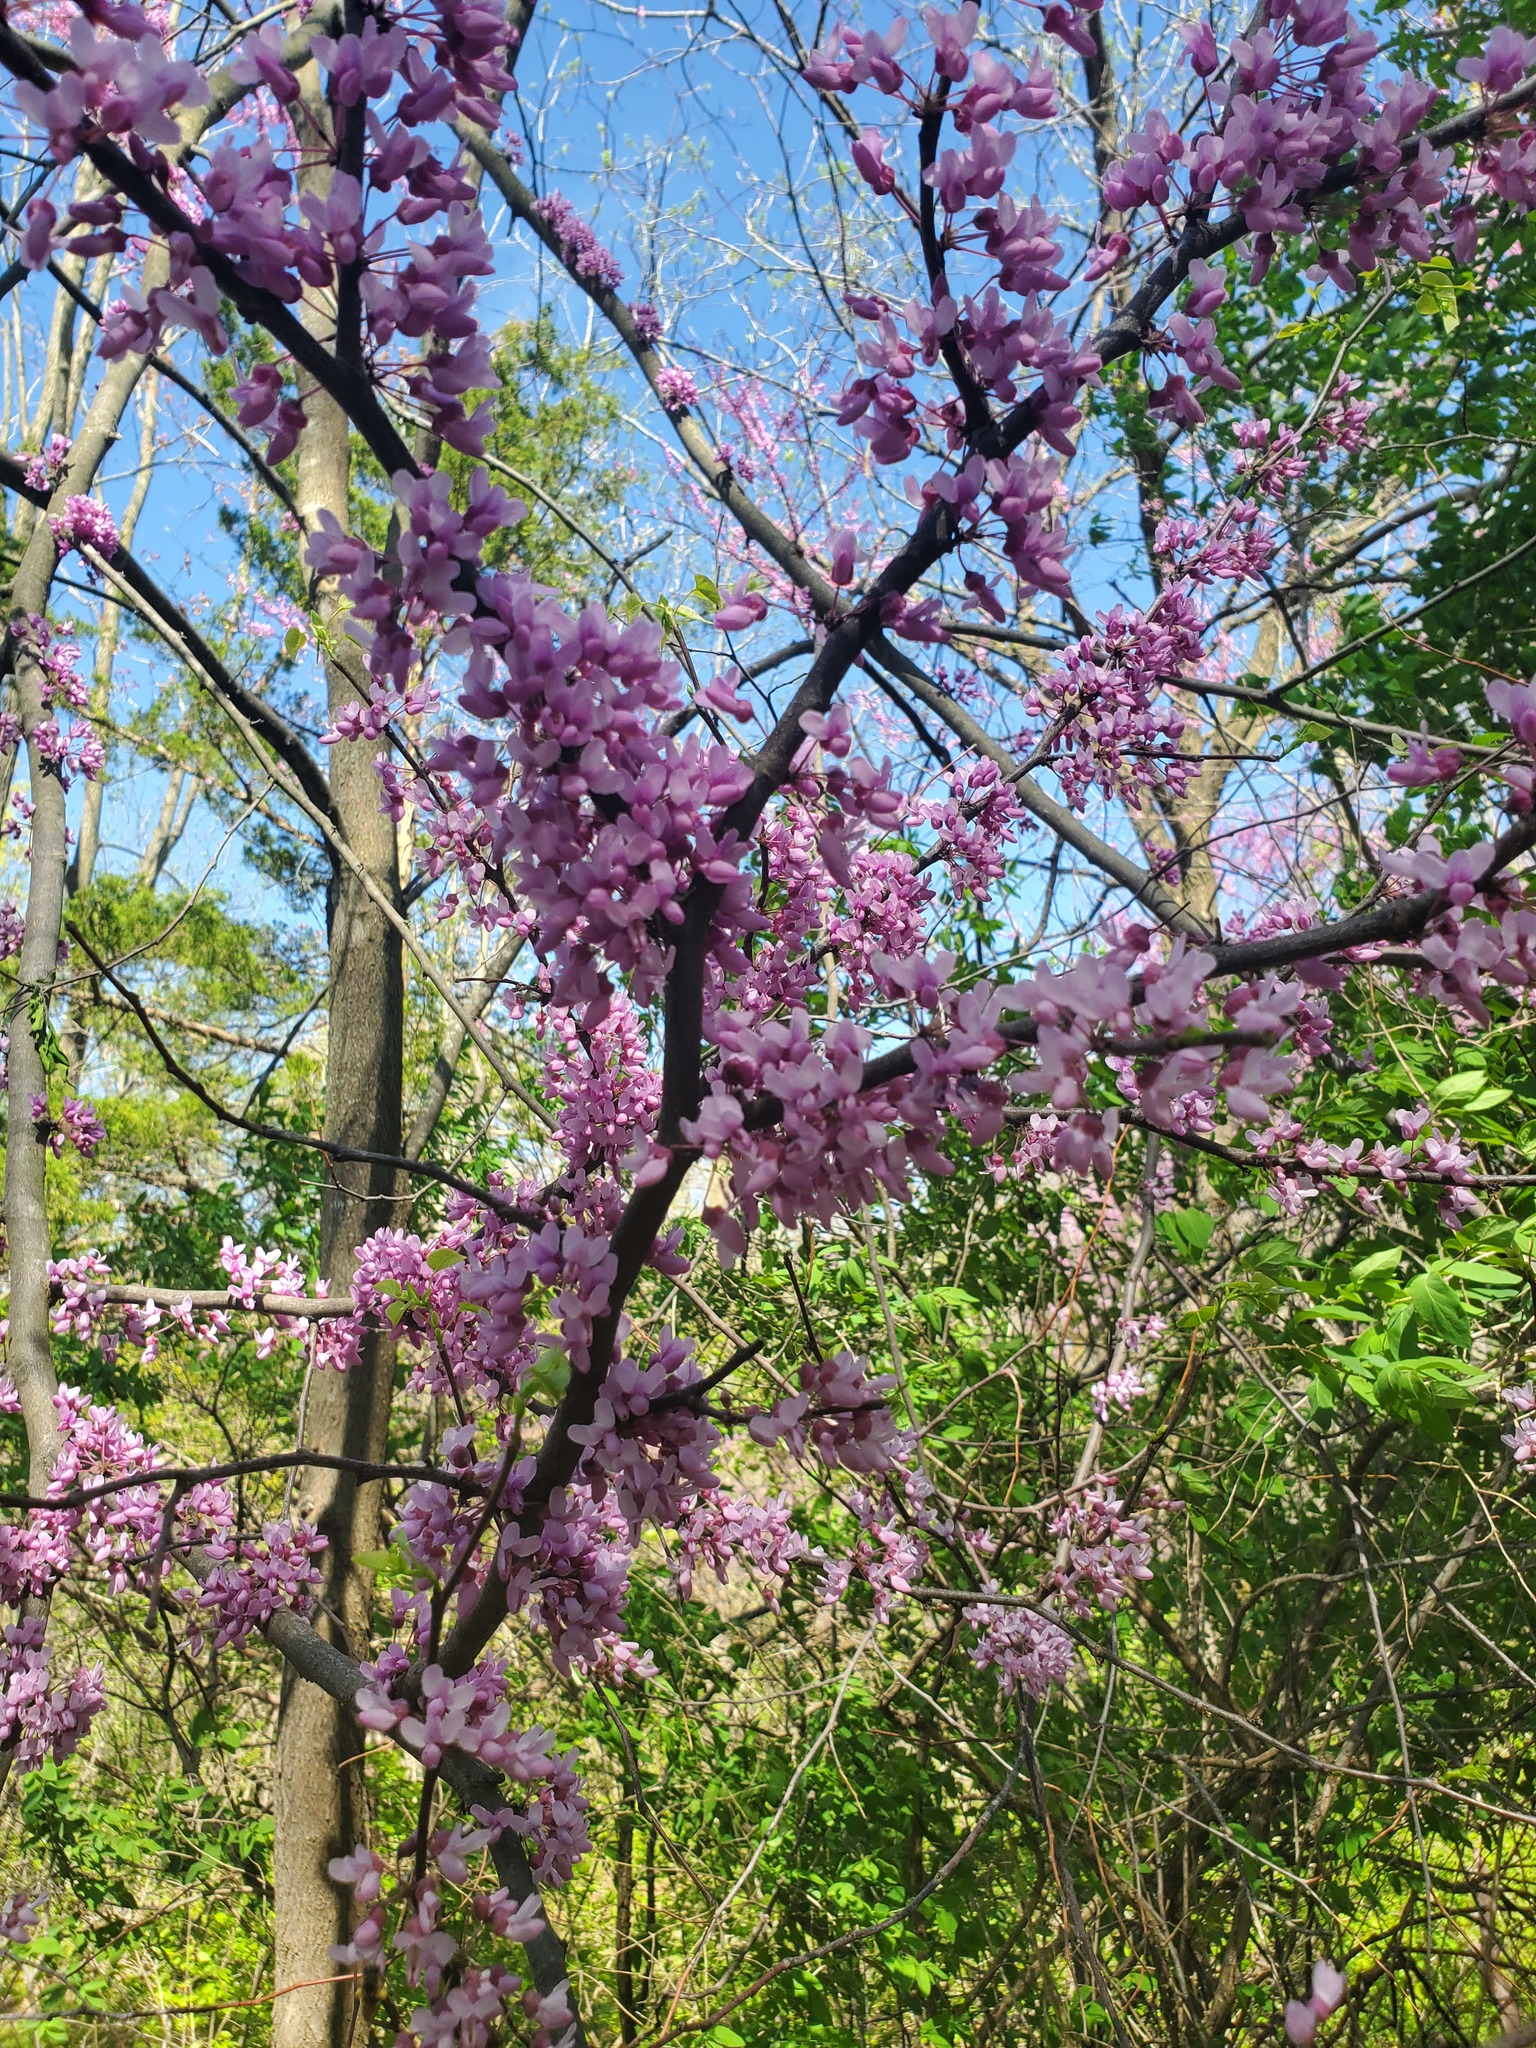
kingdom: Plantae
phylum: Tracheophyta
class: Magnoliopsida
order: Fabales
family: Fabaceae
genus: Cercis
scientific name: Cercis canadensis
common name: Eastern redbud
